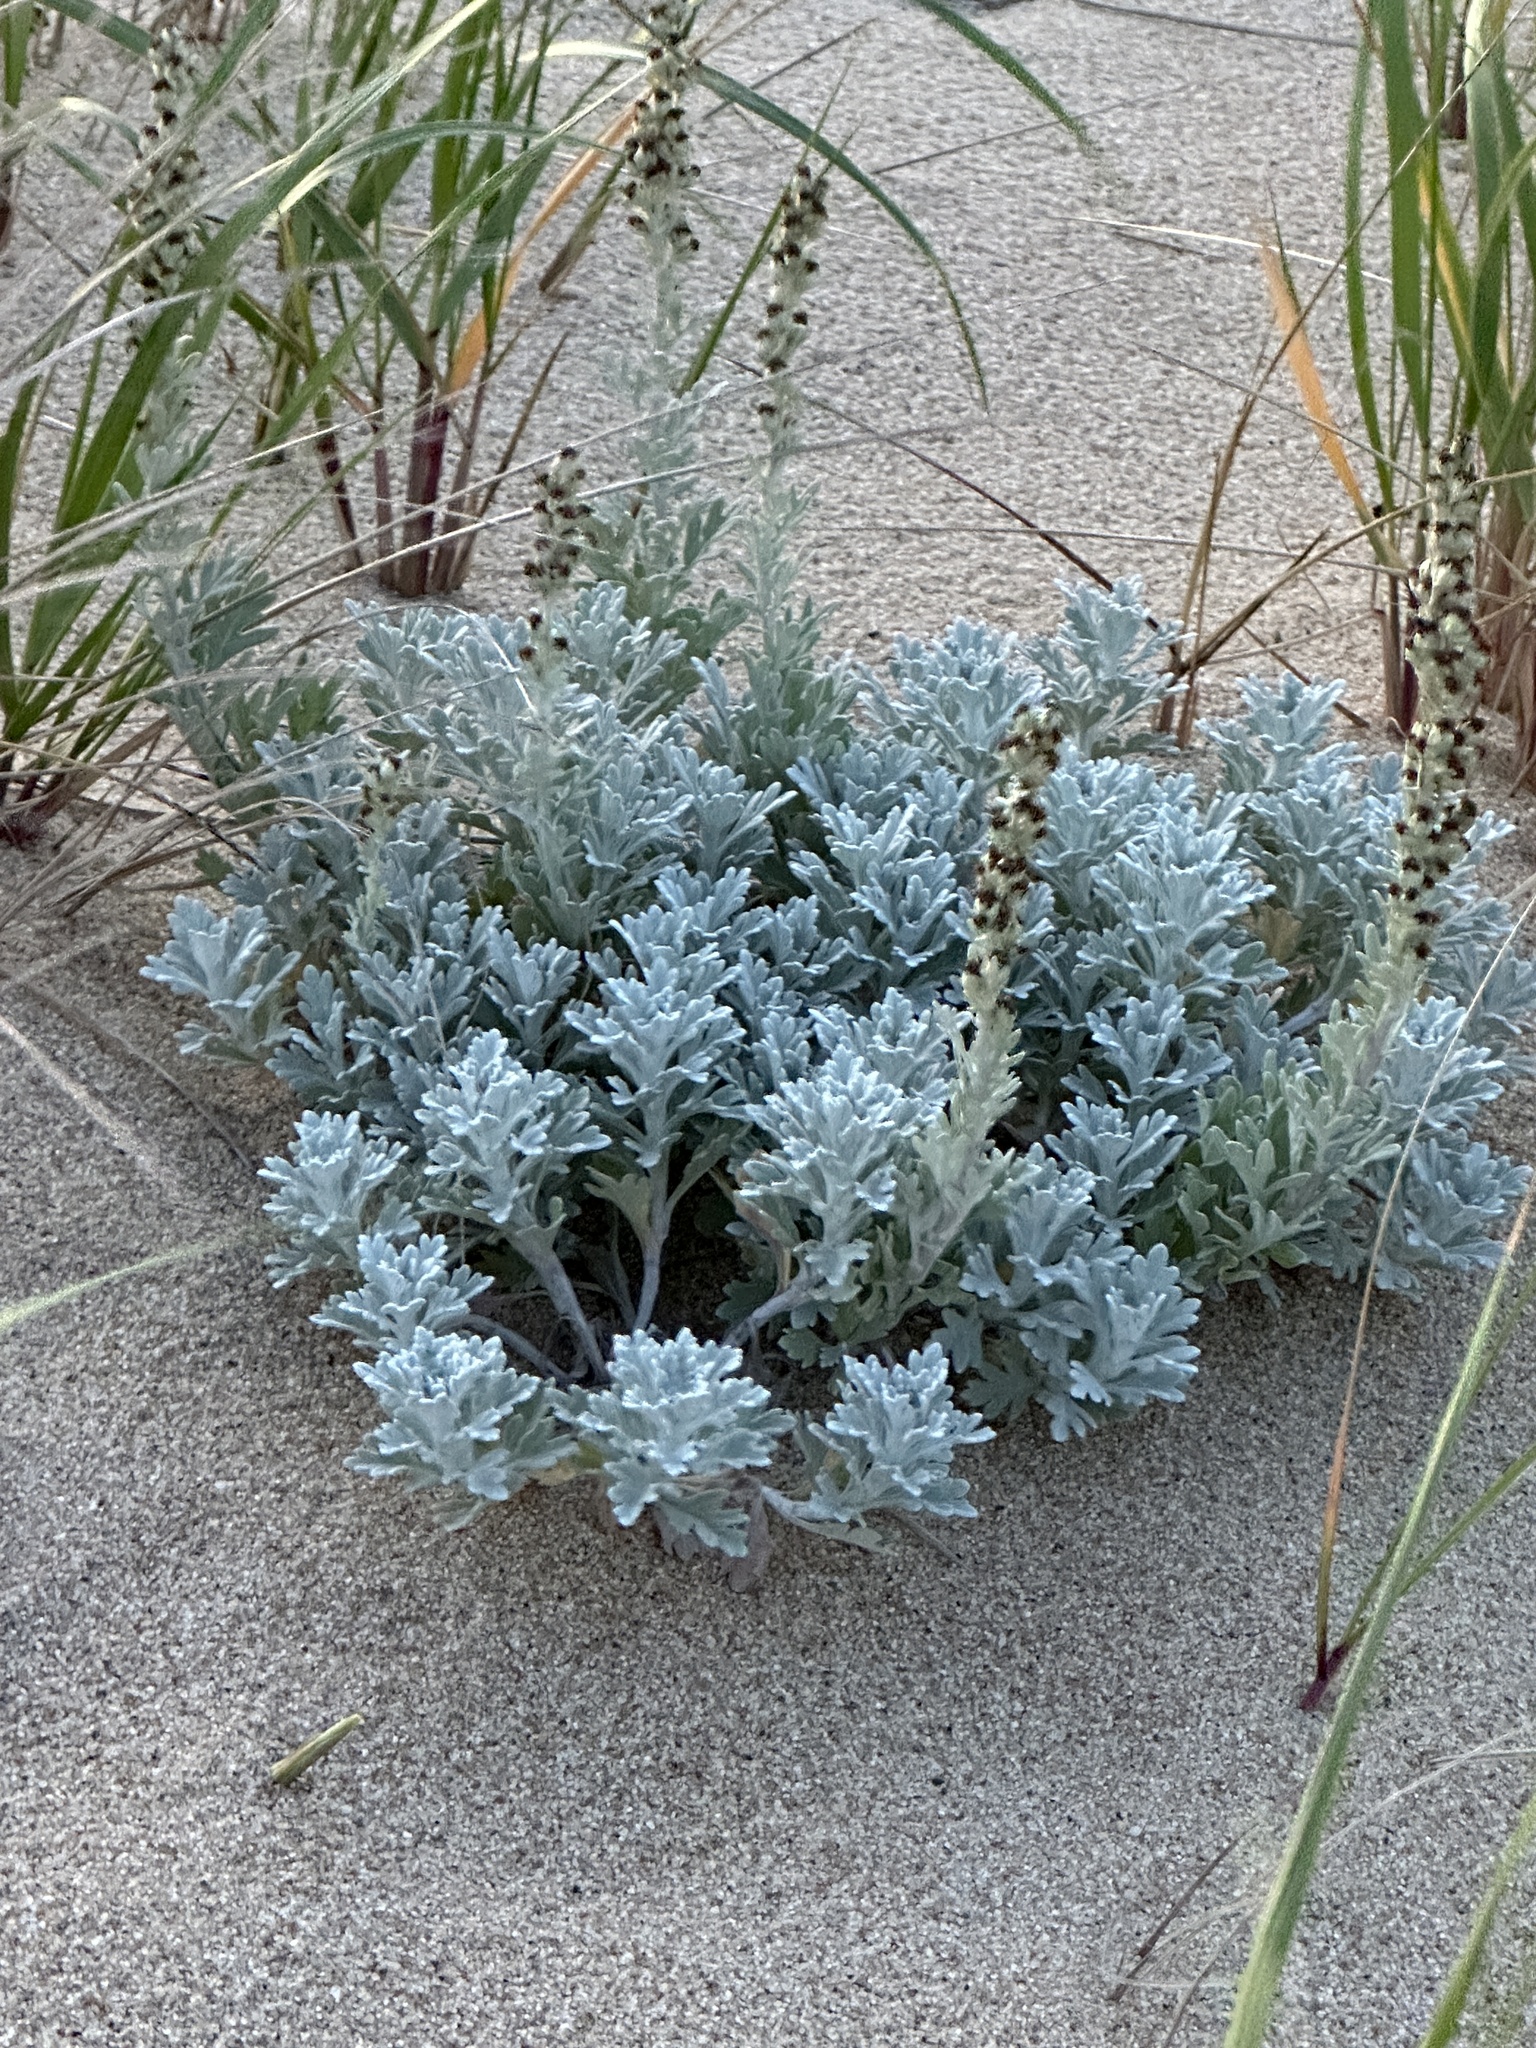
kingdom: Plantae
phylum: Tracheophyta
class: Magnoliopsida
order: Asterales
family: Asteraceae
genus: Artemisia
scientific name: Artemisia stelleriana
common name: Beach wormwood
